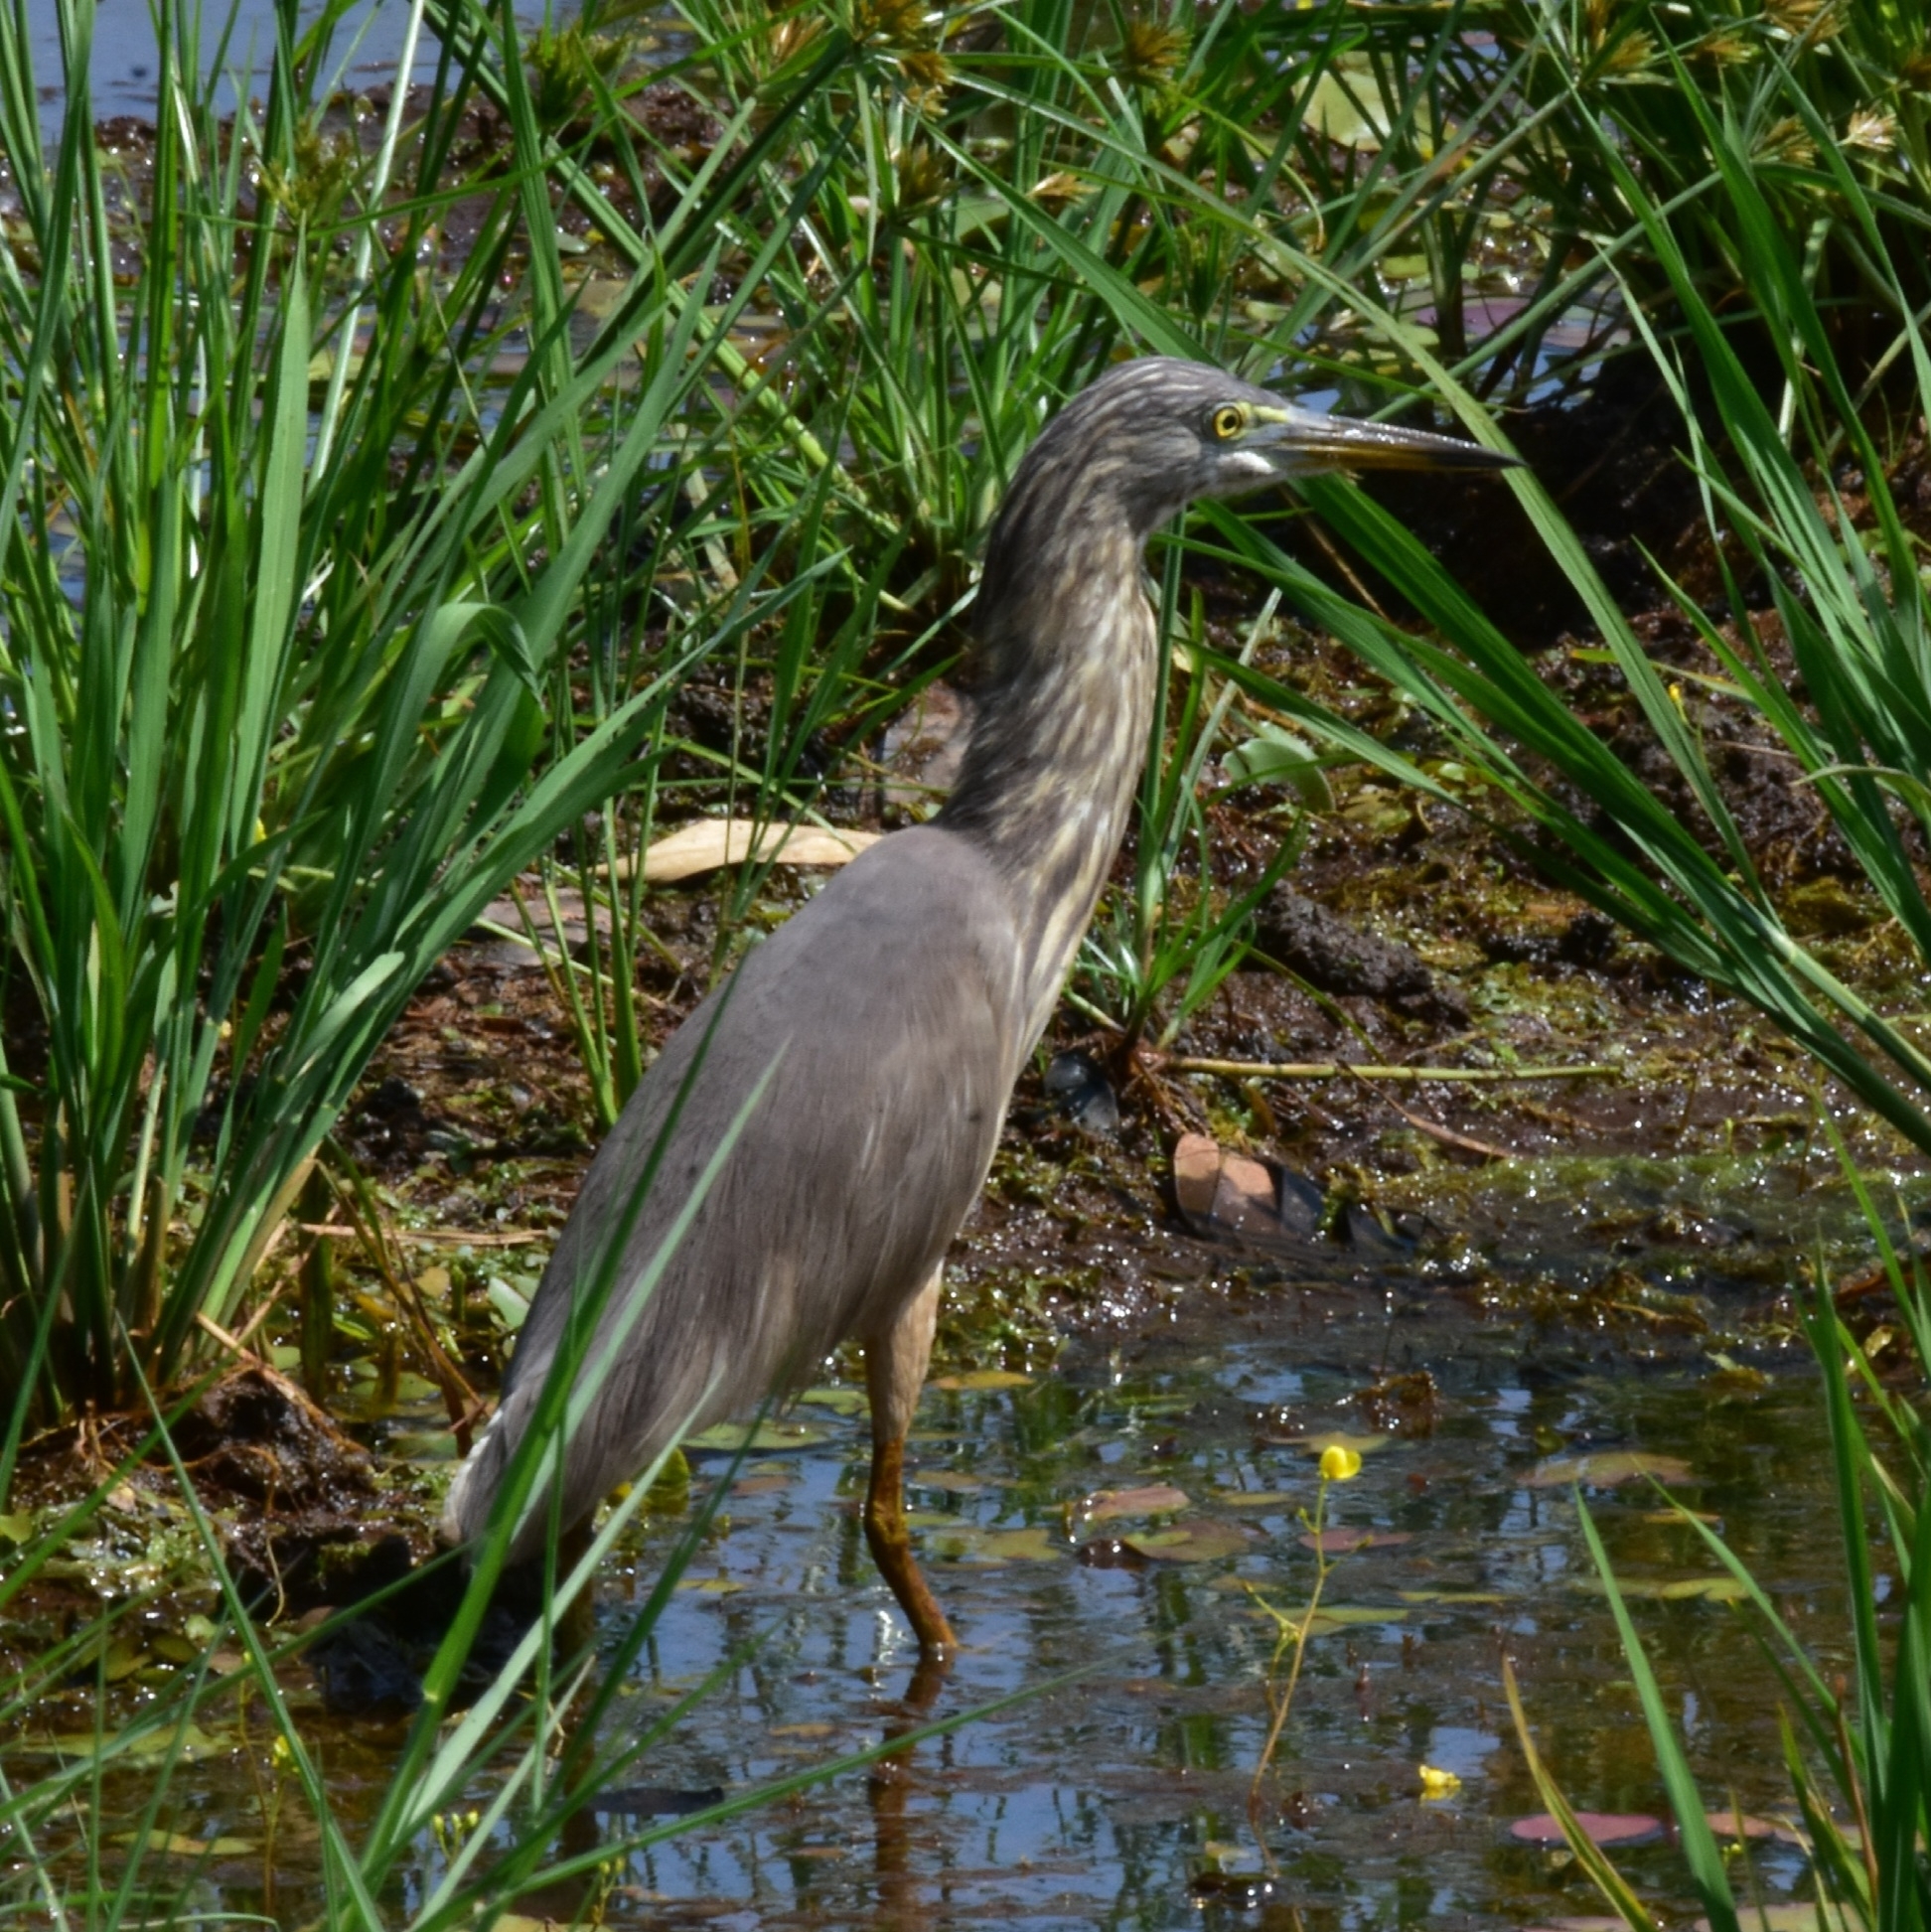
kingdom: Animalia
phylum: Chordata
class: Aves
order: Pelecaniformes
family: Ardeidae
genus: Ardeola
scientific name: Ardeola grayii
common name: Indian pond heron
